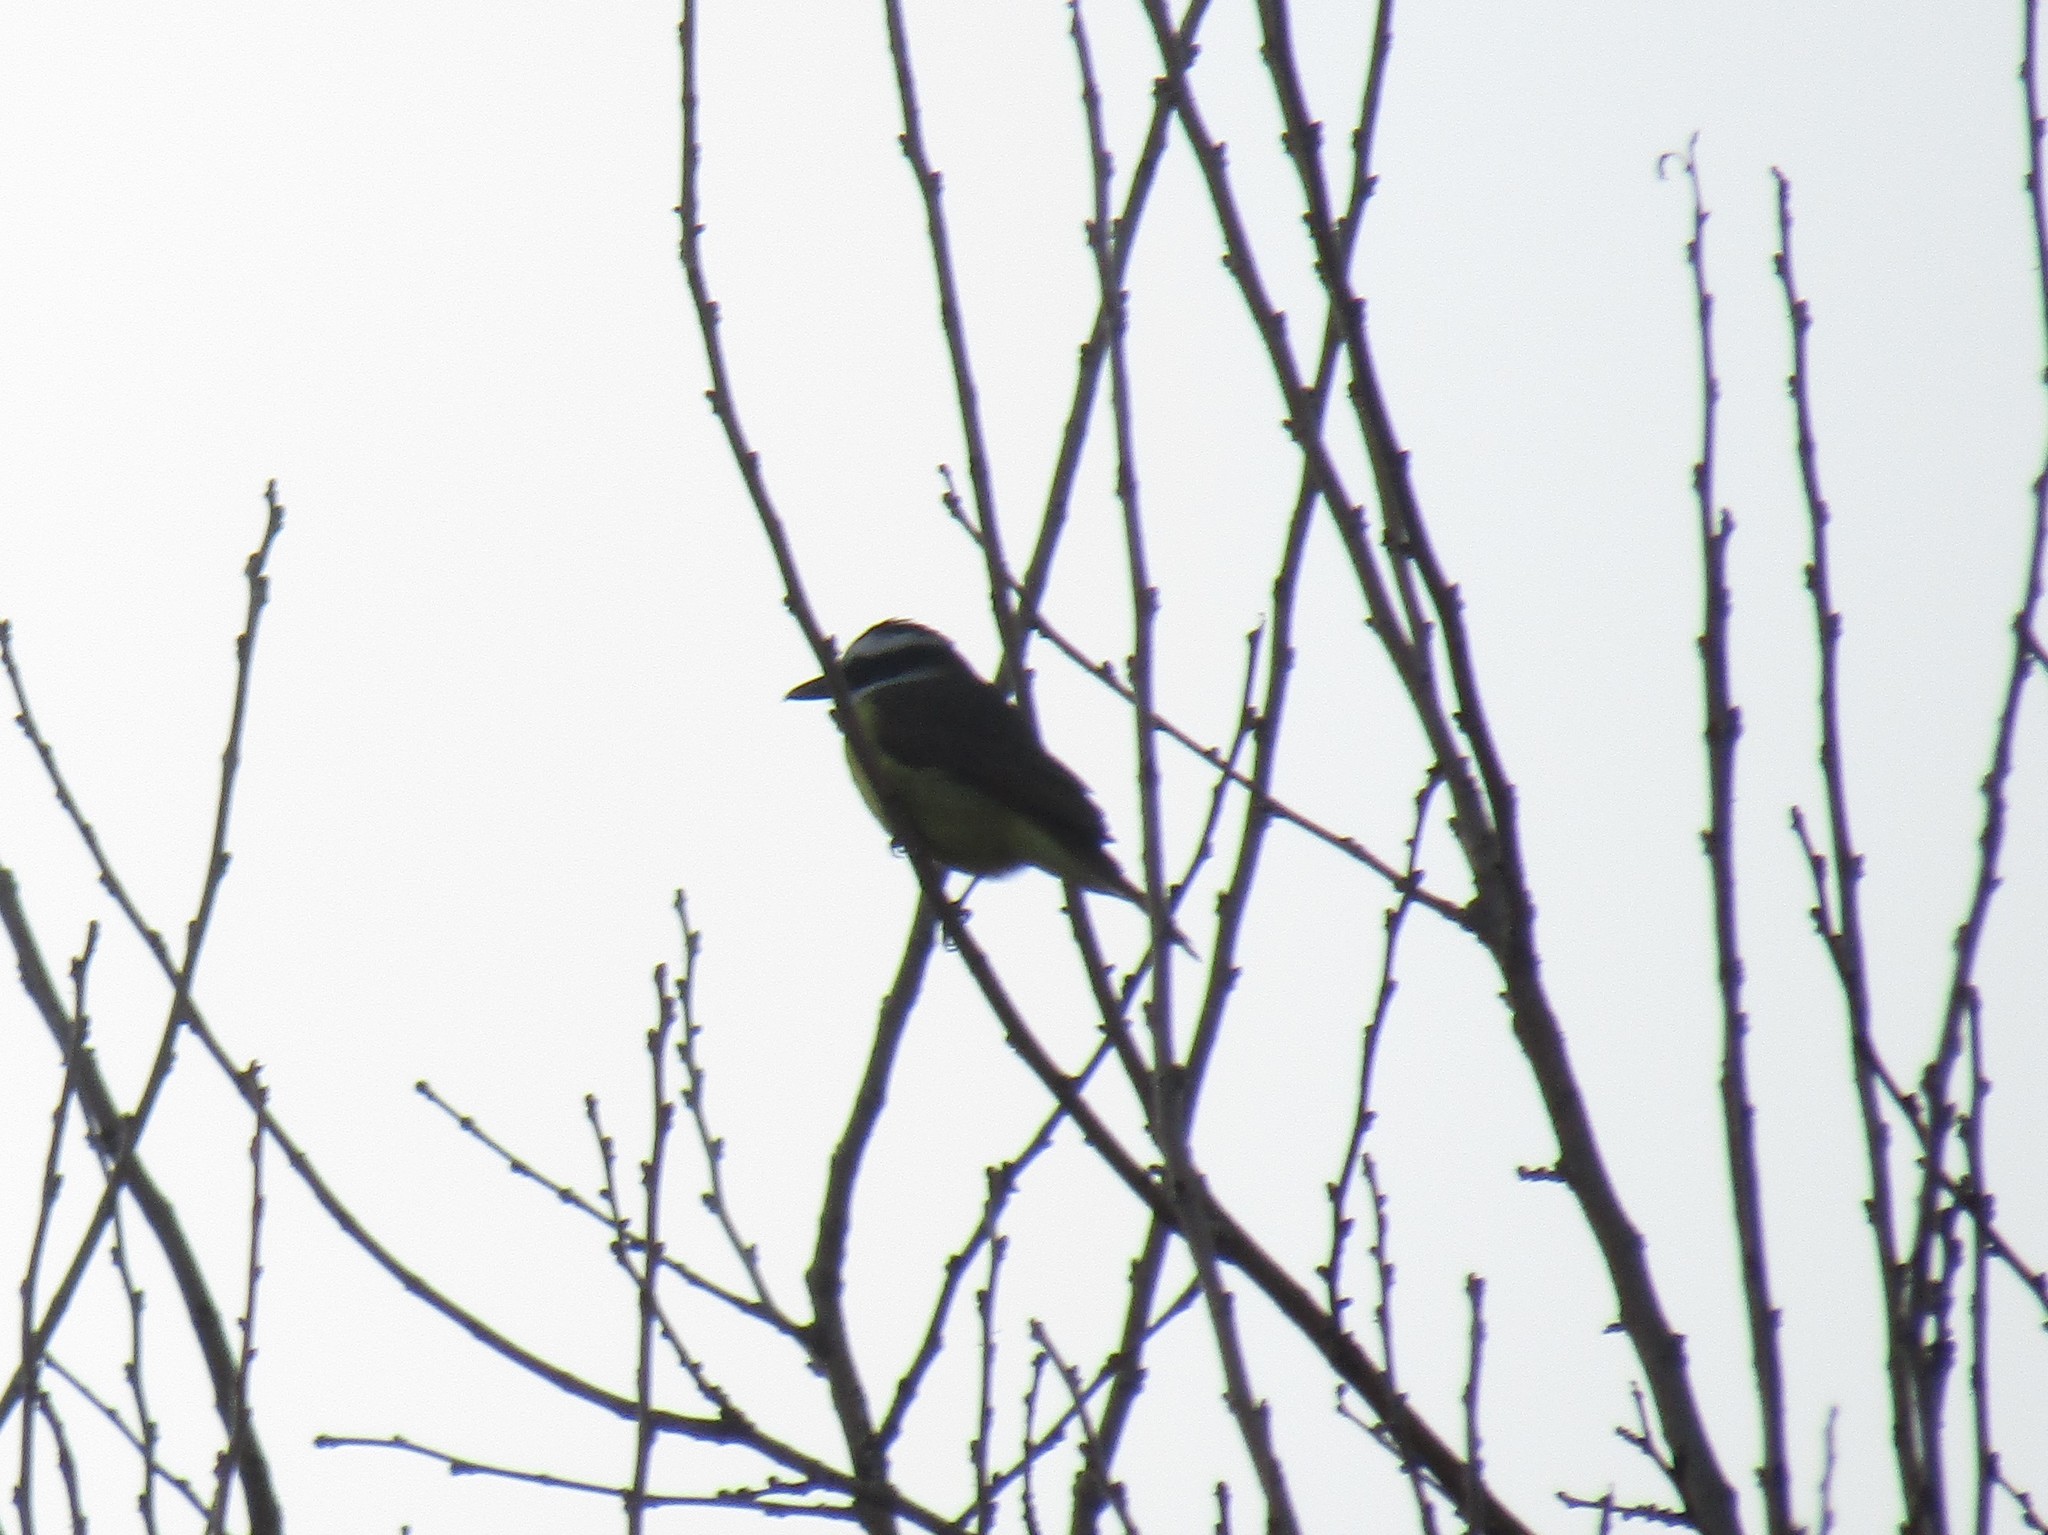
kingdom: Animalia
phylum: Chordata
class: Aves
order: Passeriformes
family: Tyrannidae
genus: Pitangus
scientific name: Pitangus sulphuratus
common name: Great kiskadee
